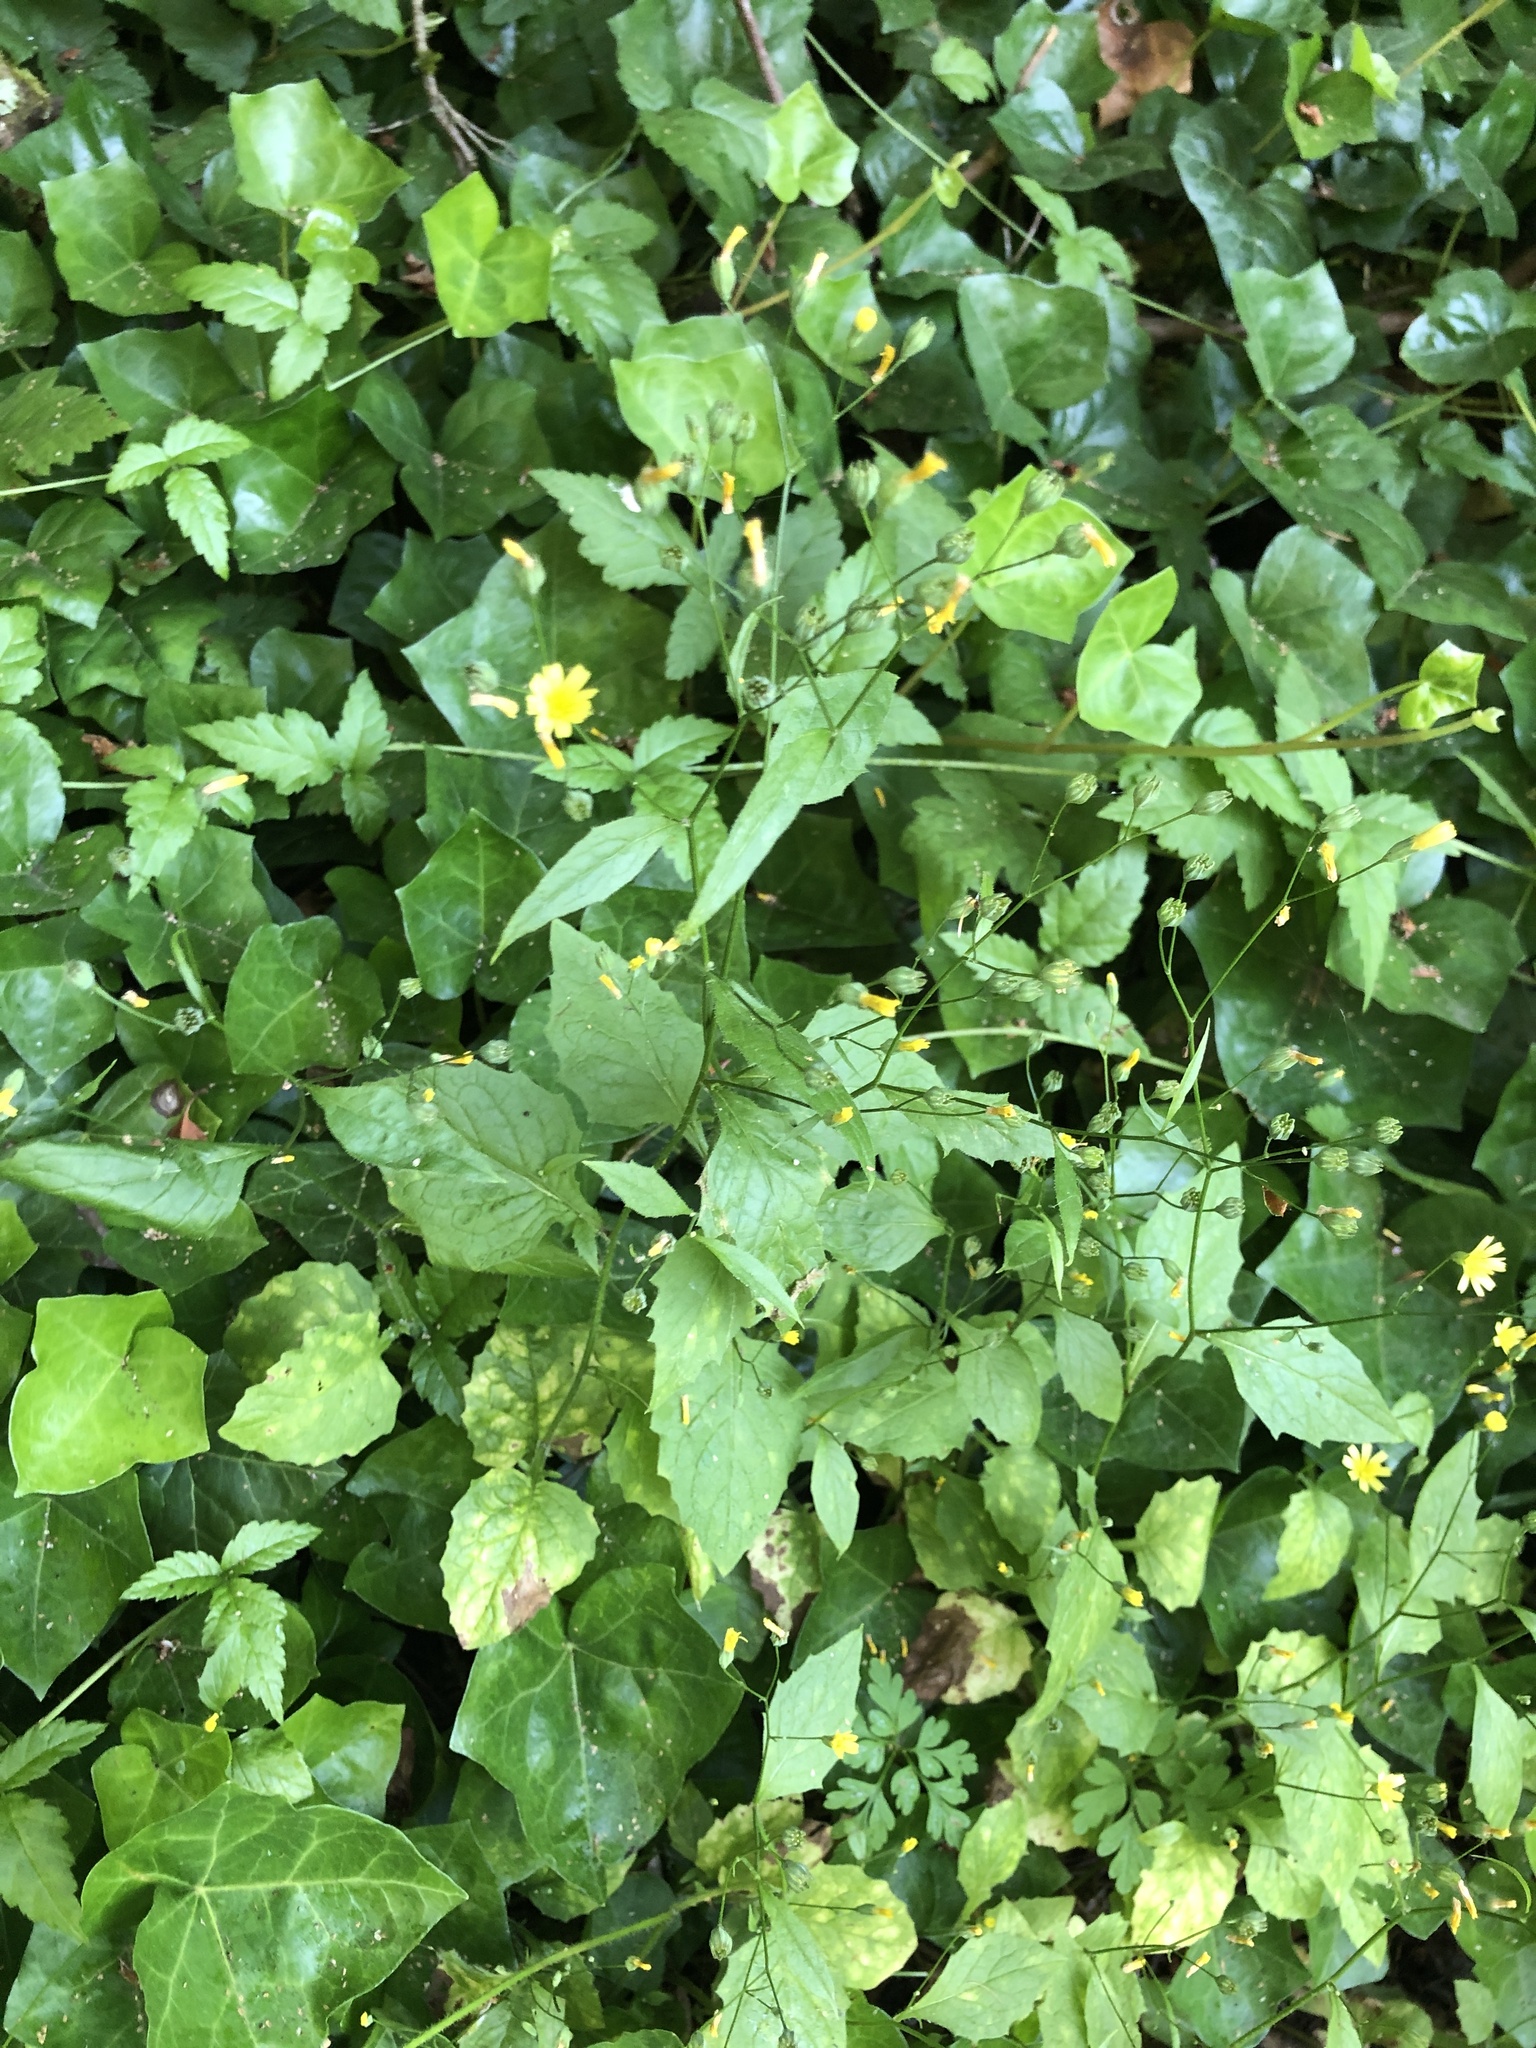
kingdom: Plantae
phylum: Tracheophyta
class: Magnoliopsida
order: Asterales
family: Asteraceae
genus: Lapsana
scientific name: Lapsana communis
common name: Nipplewort
